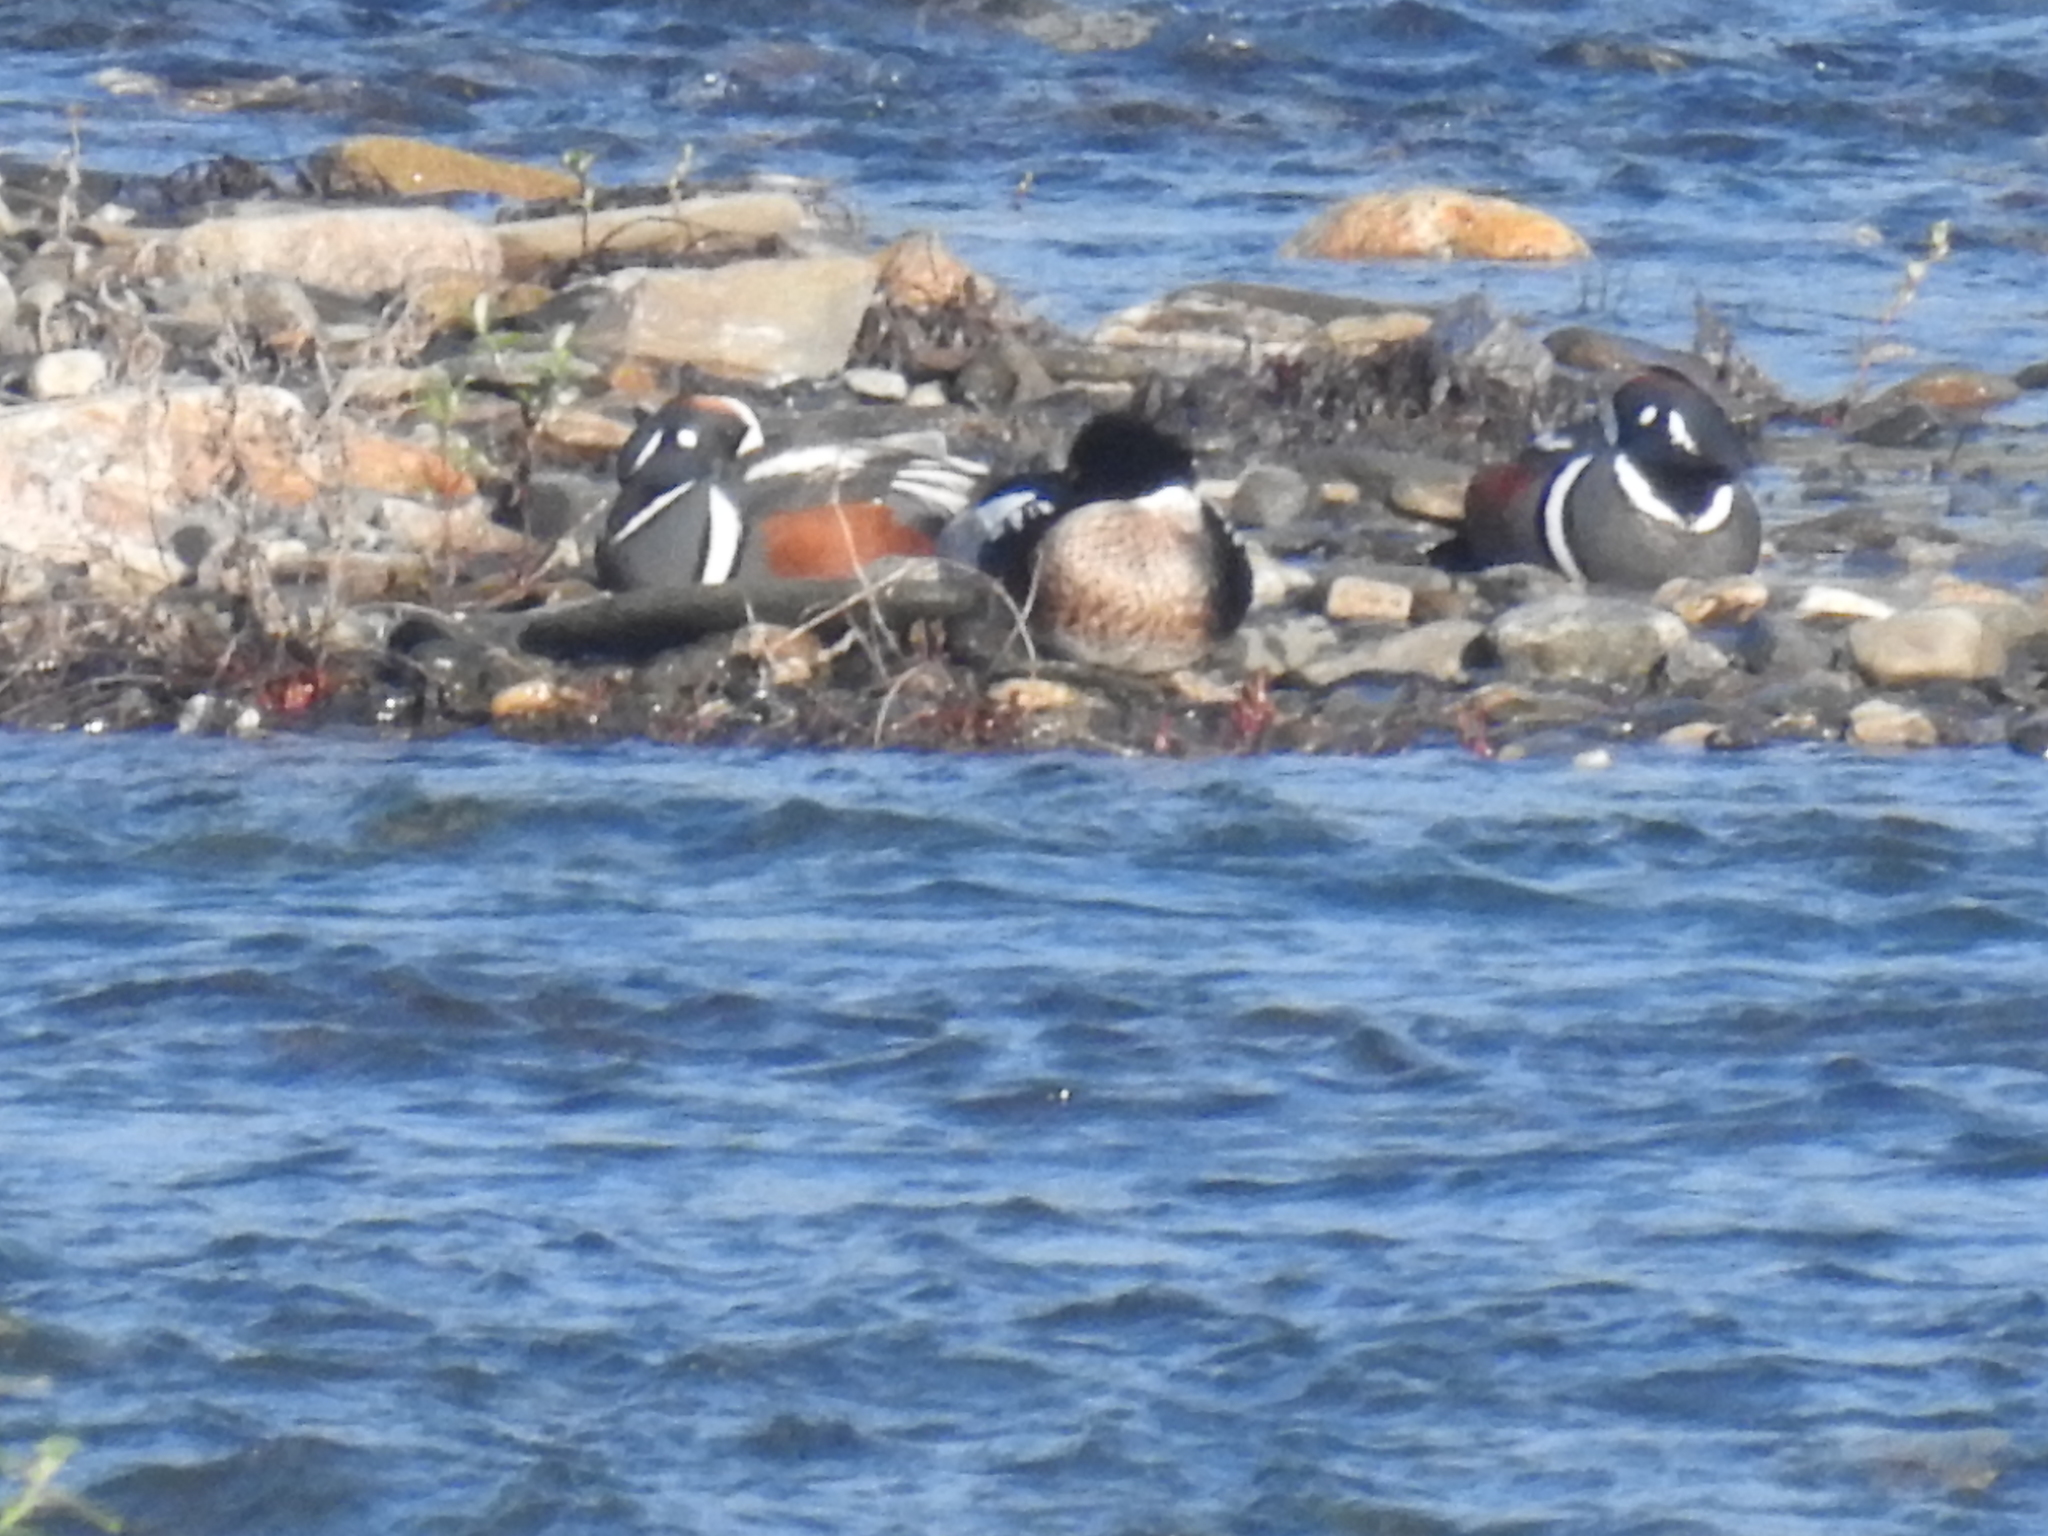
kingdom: Animalia
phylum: Chordata
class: Aves
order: Anseriformes
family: Anatidae
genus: Histrionicus
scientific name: Histrionicus histrionicus
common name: Harlequin duck
